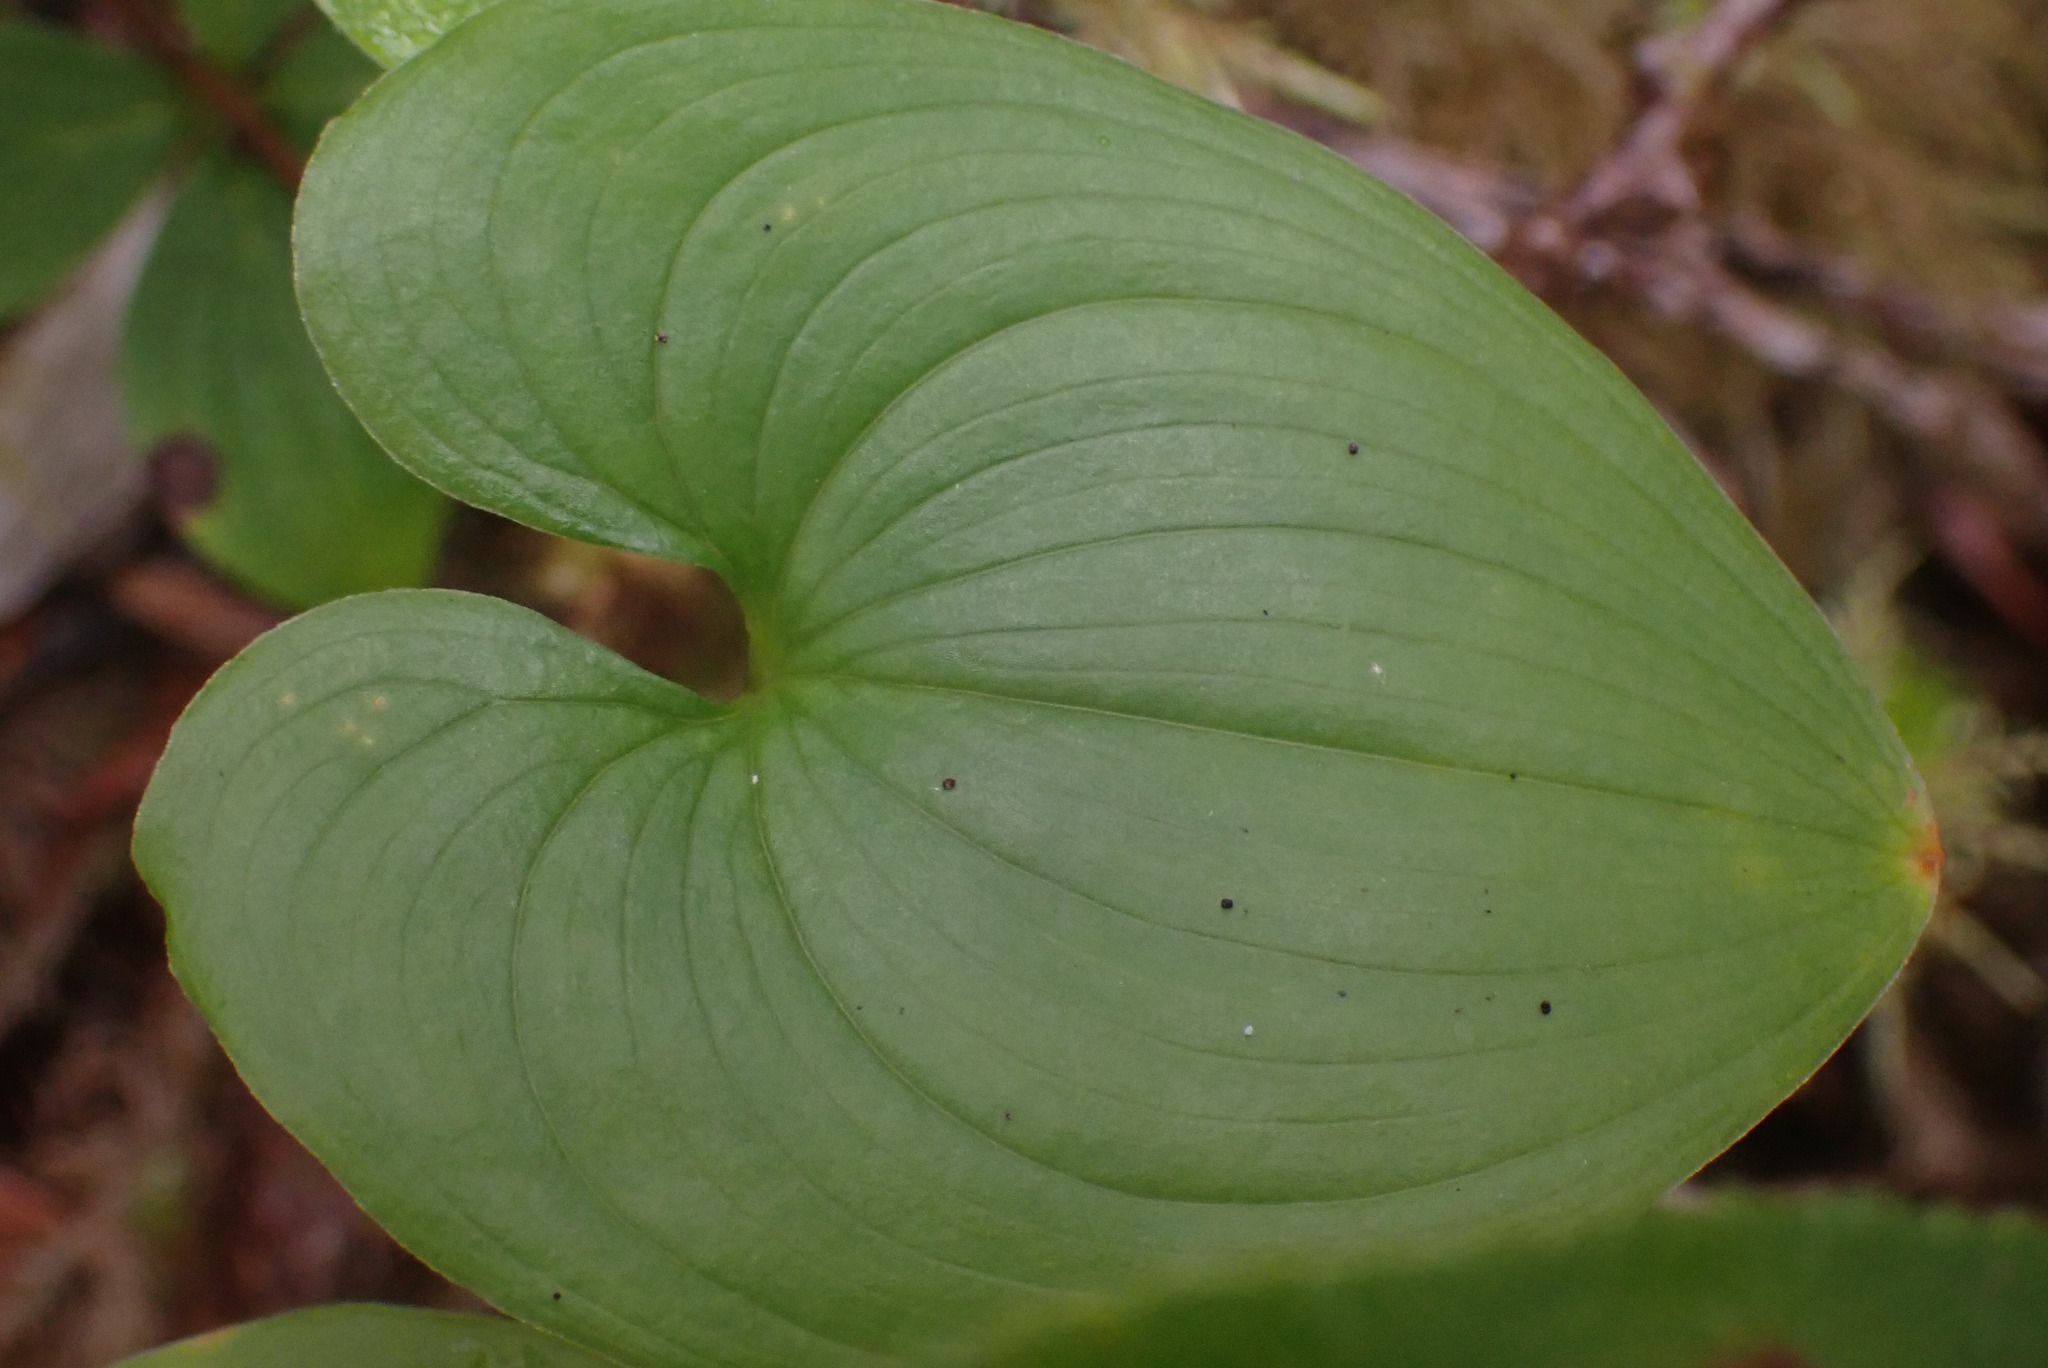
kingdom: Plantae
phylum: Tracheophyta
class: Liliopsida
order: Asparagales
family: Asparagaceae
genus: Maianthemum
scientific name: Maianthemum dilatatum
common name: False lily-of-the-valley
